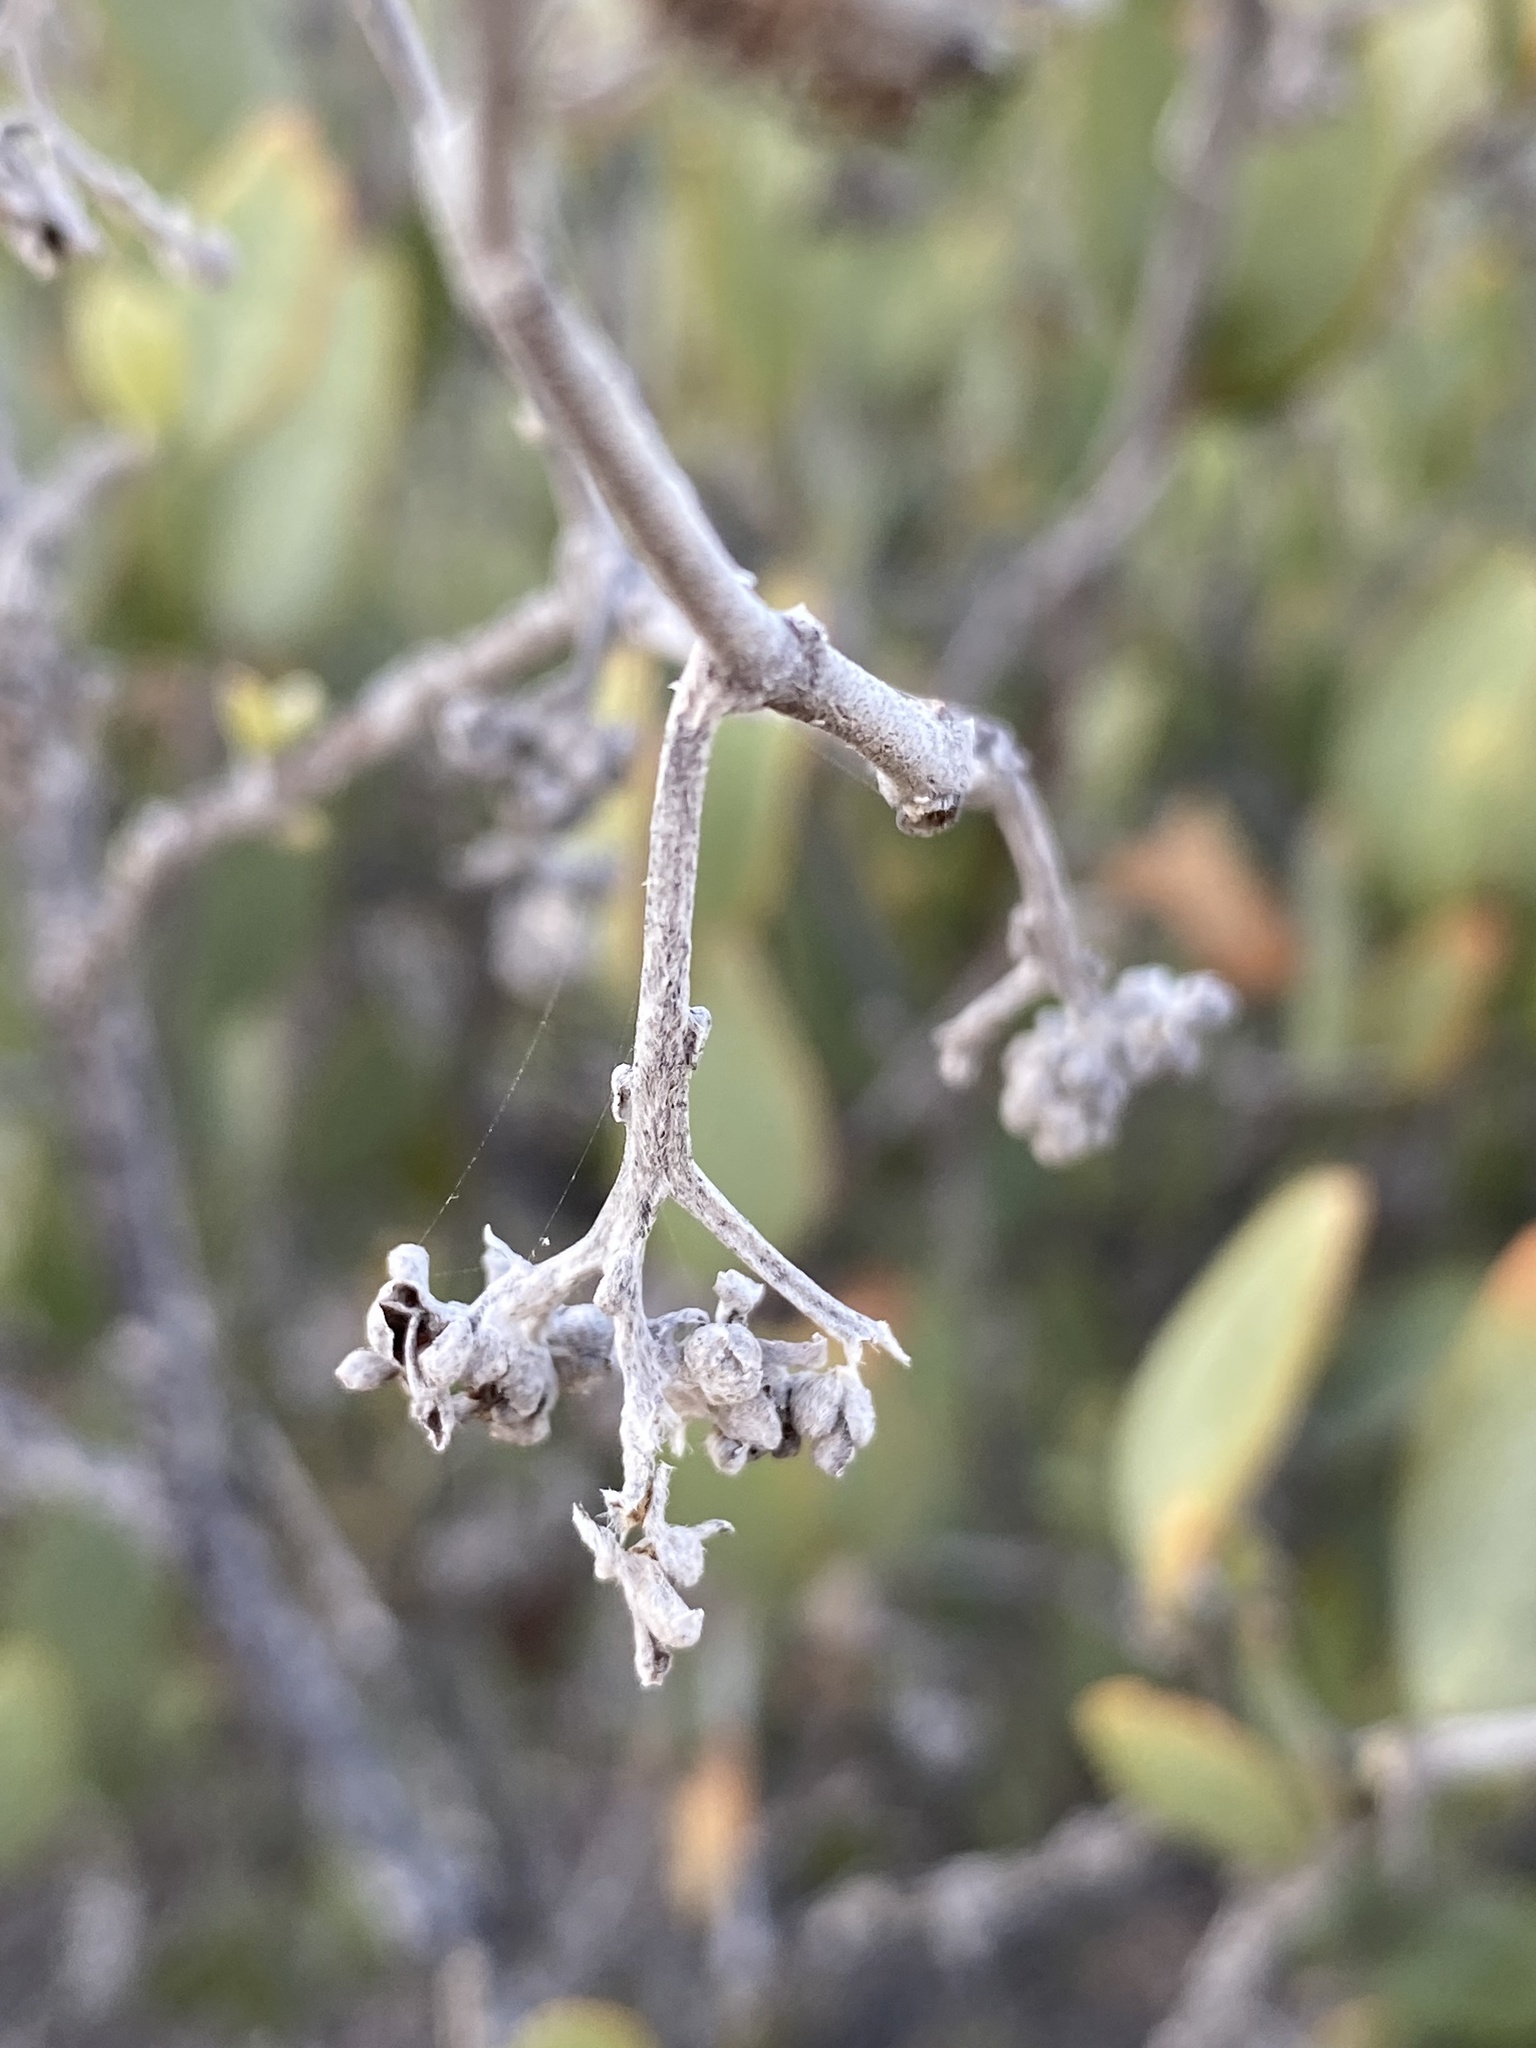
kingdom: Plantae
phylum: Tracheophyta
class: Magnoliopsida
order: Caryophyllales
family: Simmondsiaceae
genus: Simmondsia
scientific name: Simmondsia chinensis
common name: Jojoba
